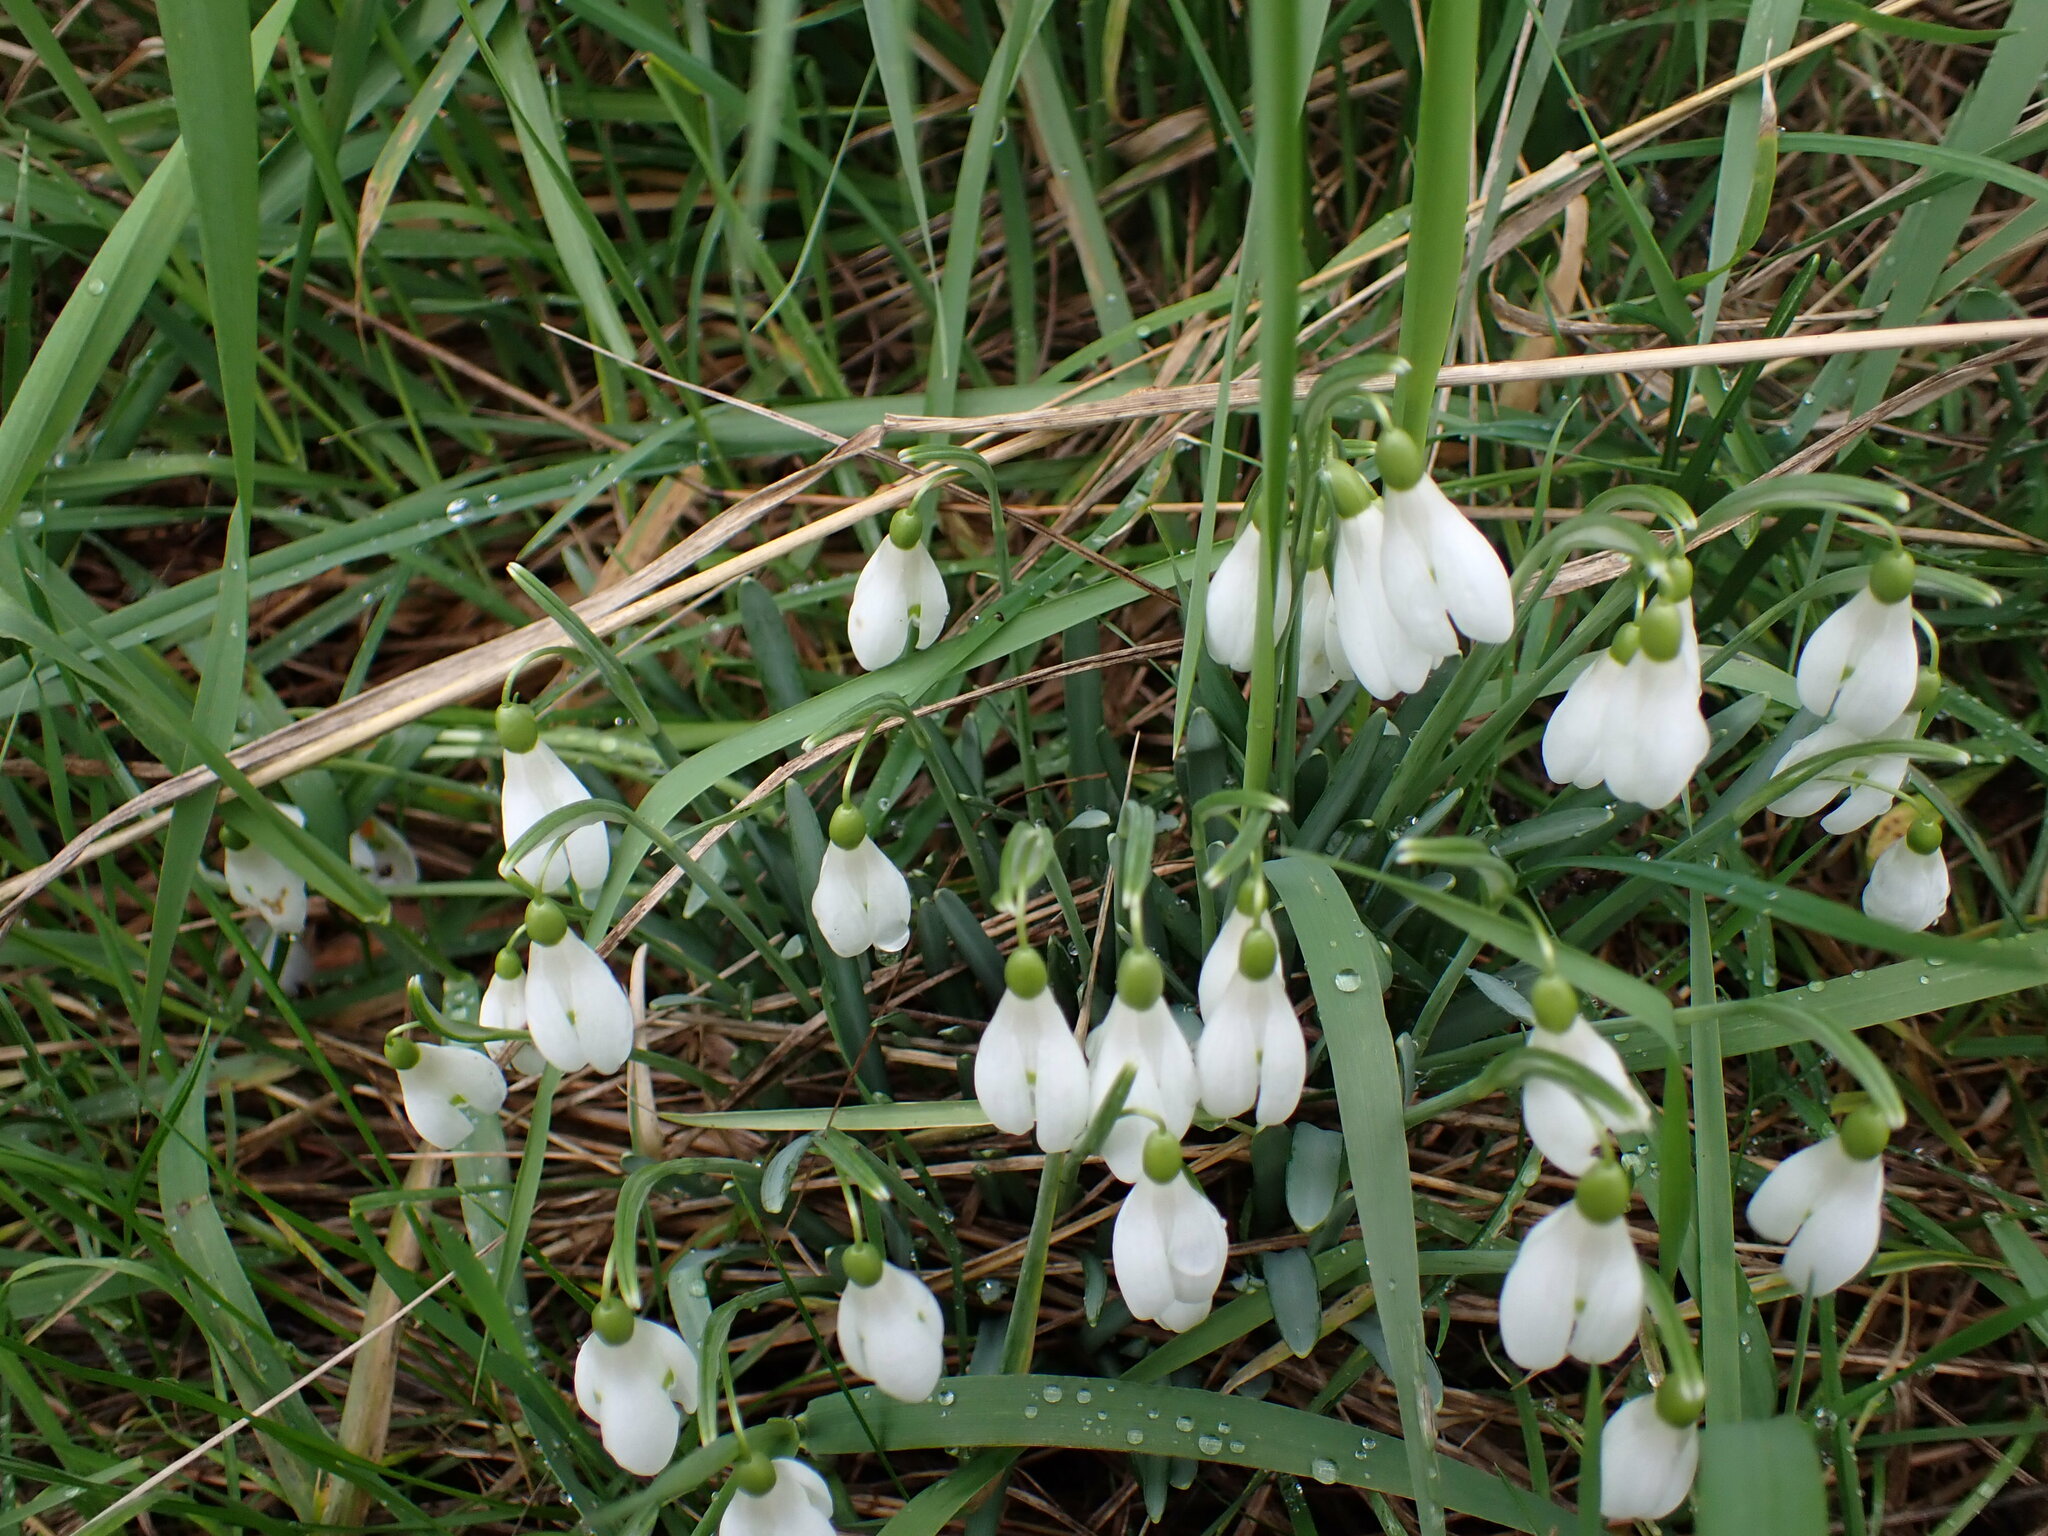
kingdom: Plantae
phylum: Tracheophyta
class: Liliopsida
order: Asparagales
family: Amaryllidaceae
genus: Galanthus
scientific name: Galanthus nivalis
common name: Snowdrop
